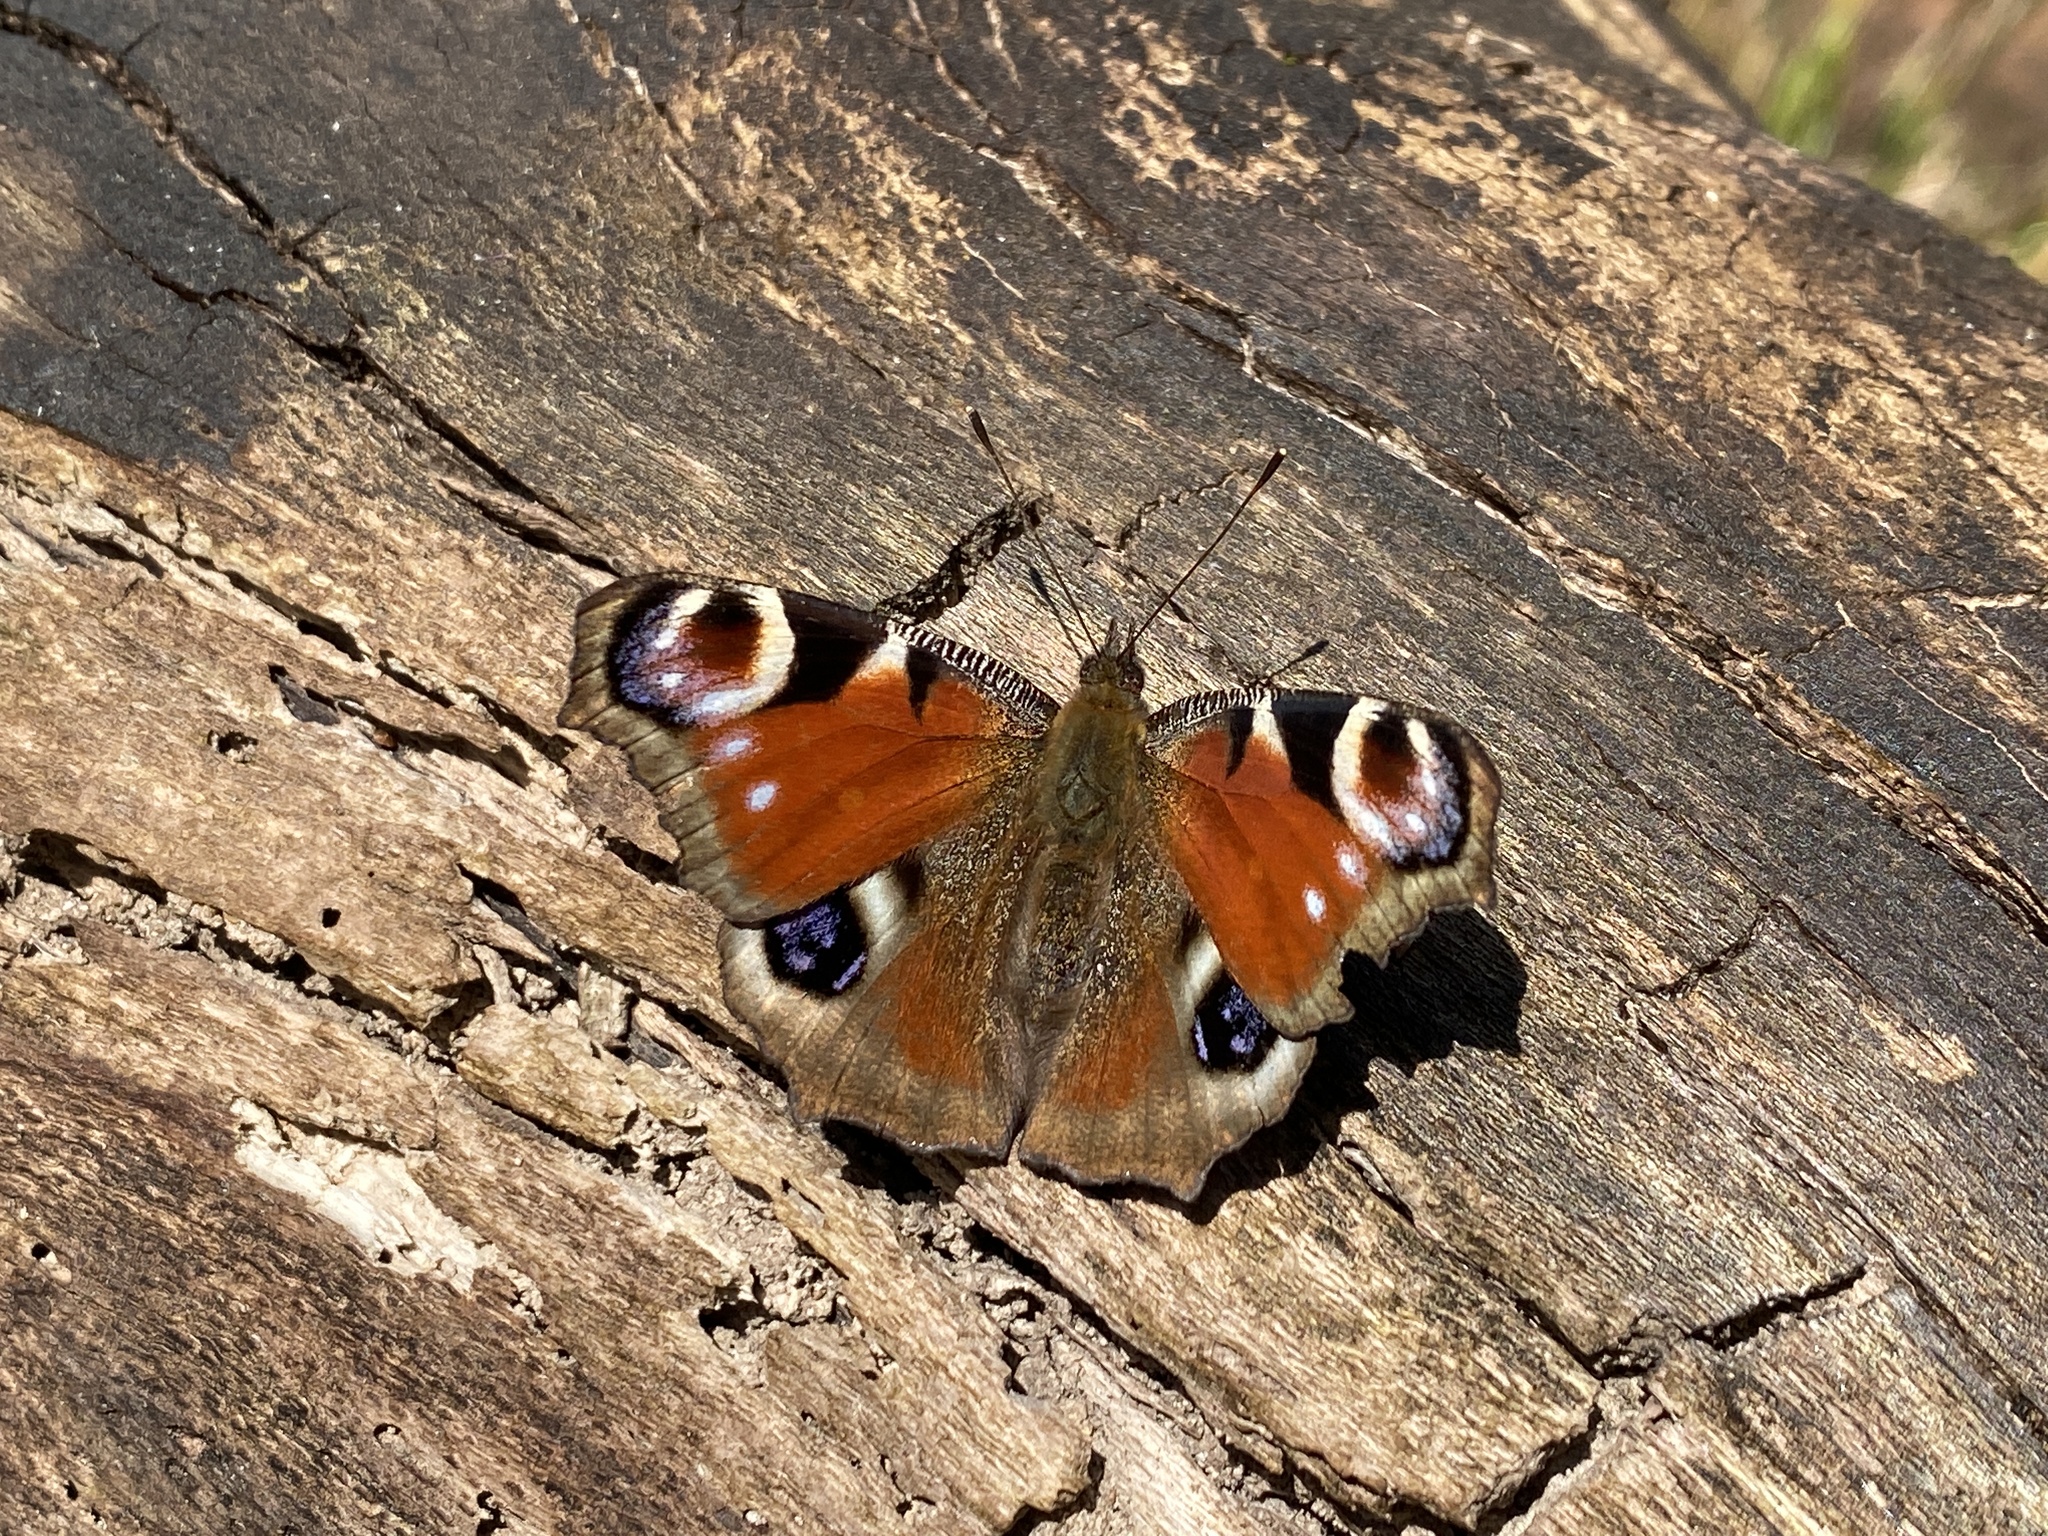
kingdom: Animalia
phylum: Arthropoda
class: Insecta
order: Lepidoptera
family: Nymphalidae
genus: Aglais
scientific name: Aglais io
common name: Peacock
